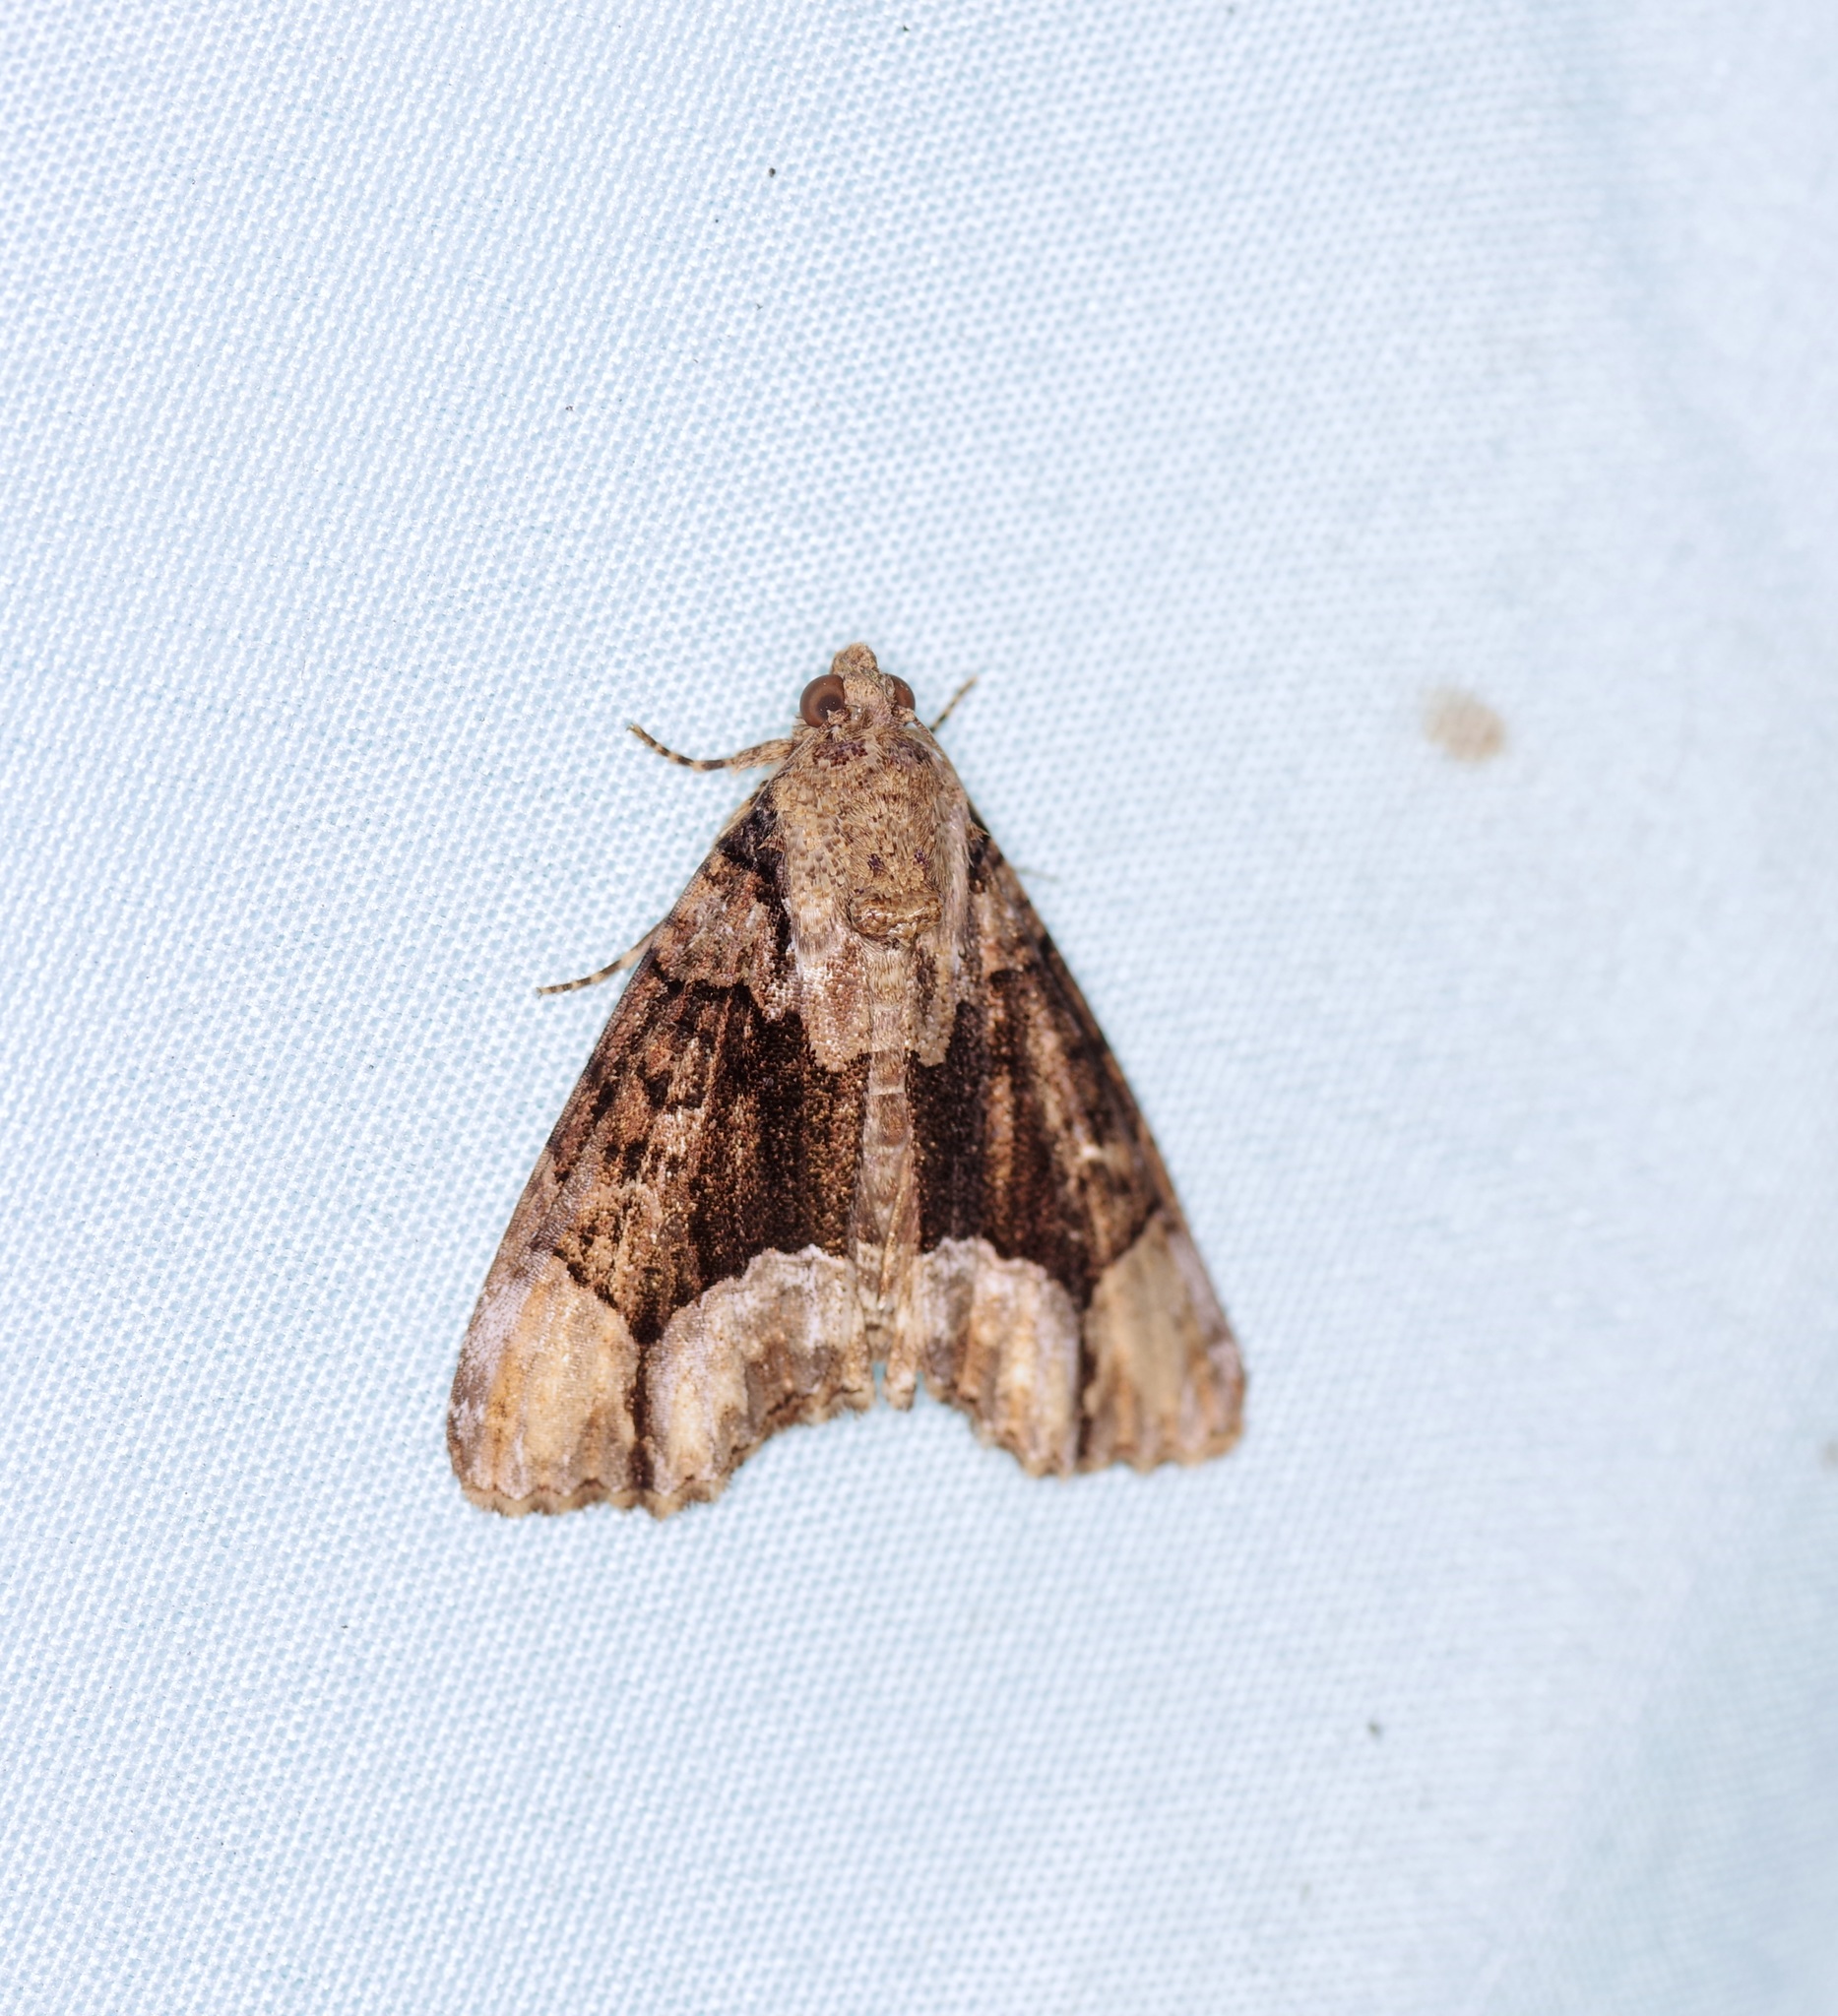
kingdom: Animalia
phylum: Arthropoda
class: Insecta
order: Lepidoptera
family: Noctuidae
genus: Cropia
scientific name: Cropia connecta
